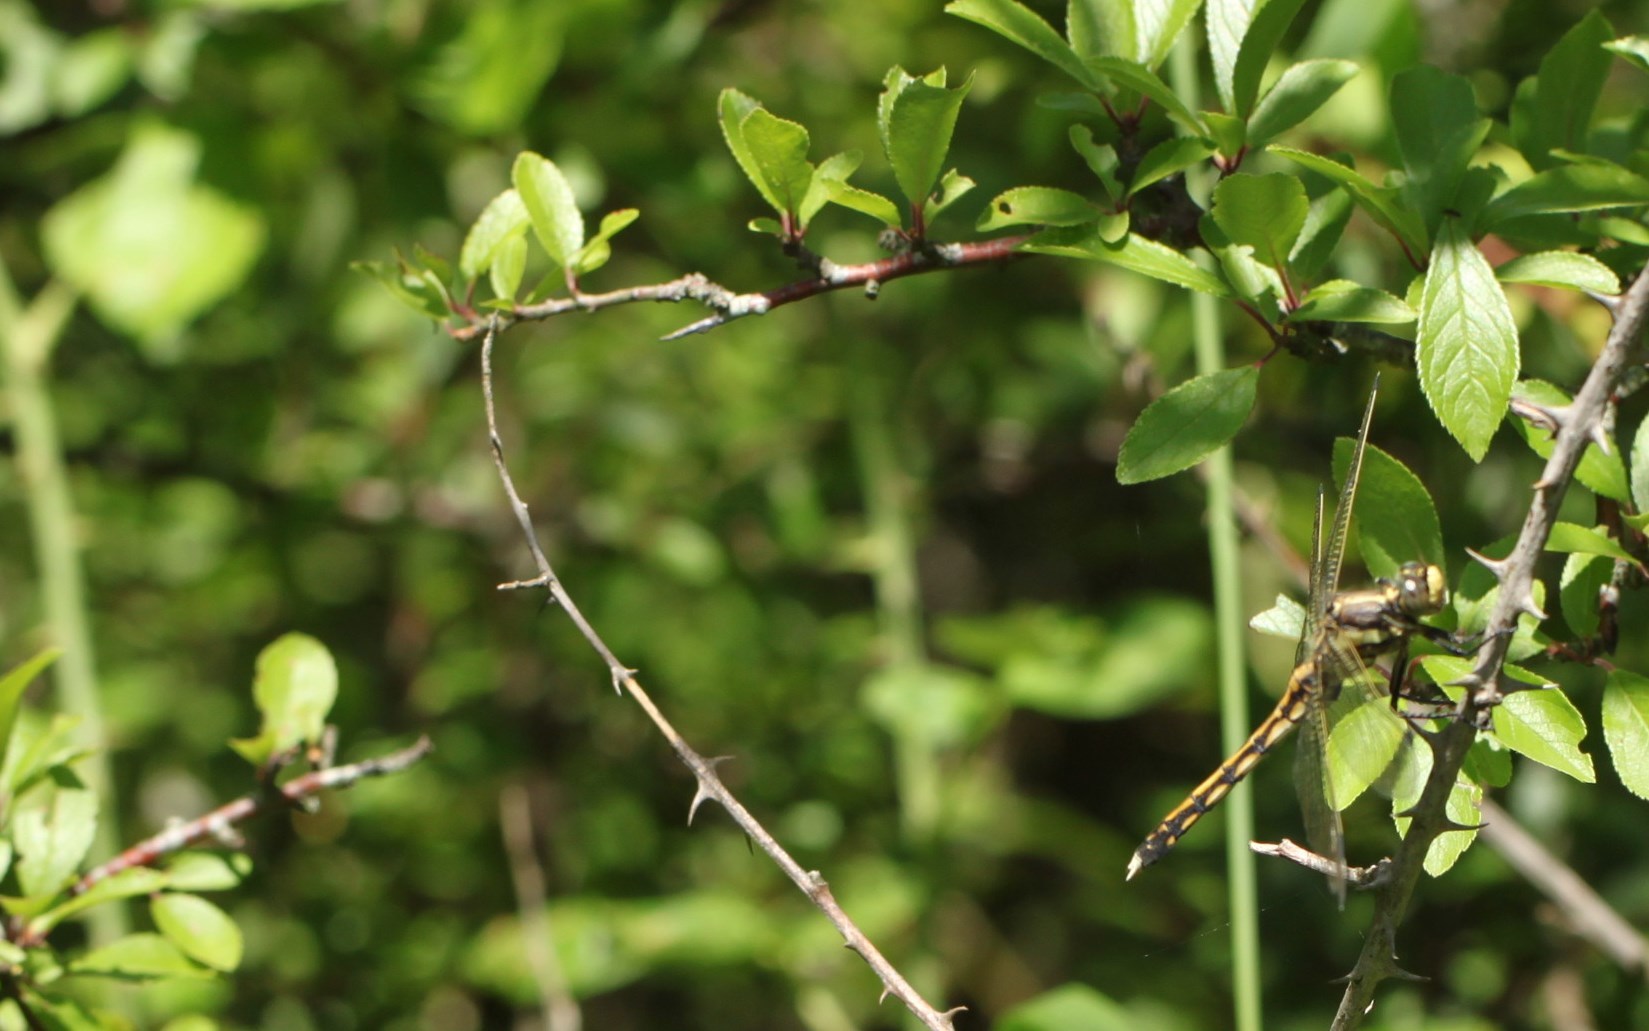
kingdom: Animalia
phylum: Arthropoda
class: Insecta
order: Odonata
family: Libellulidae
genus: Orthetrum
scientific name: Orthetrum albistylum
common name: White-tailed skimmer
